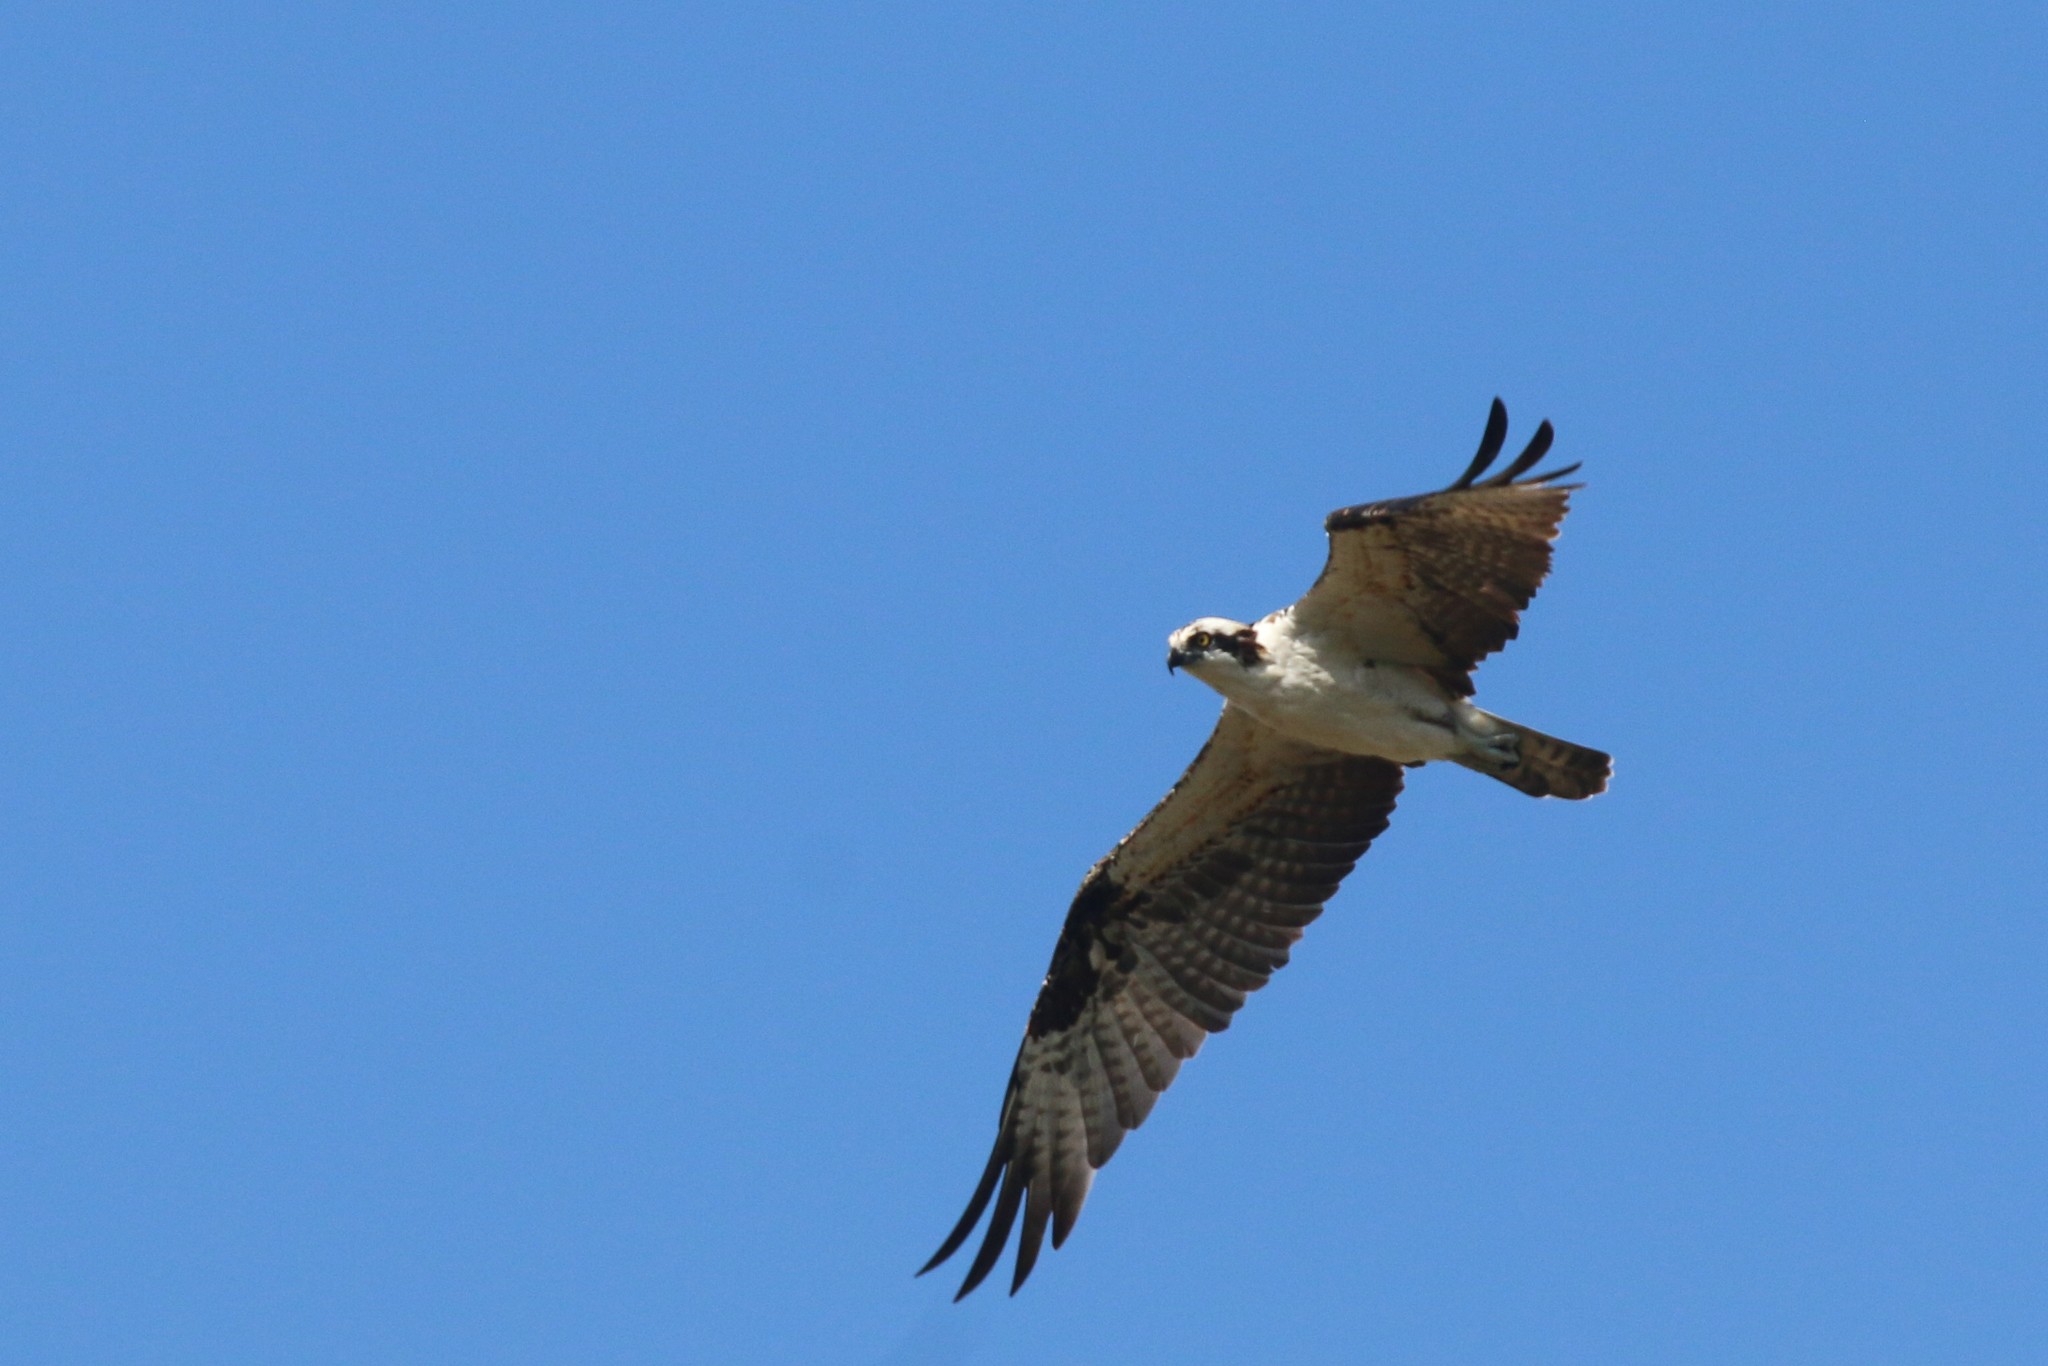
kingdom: Animalia
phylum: Chordata
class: Aves
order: Accipitriformes
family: Pandionidae
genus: Pandion
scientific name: Pandion haliaetus
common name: Osprey
